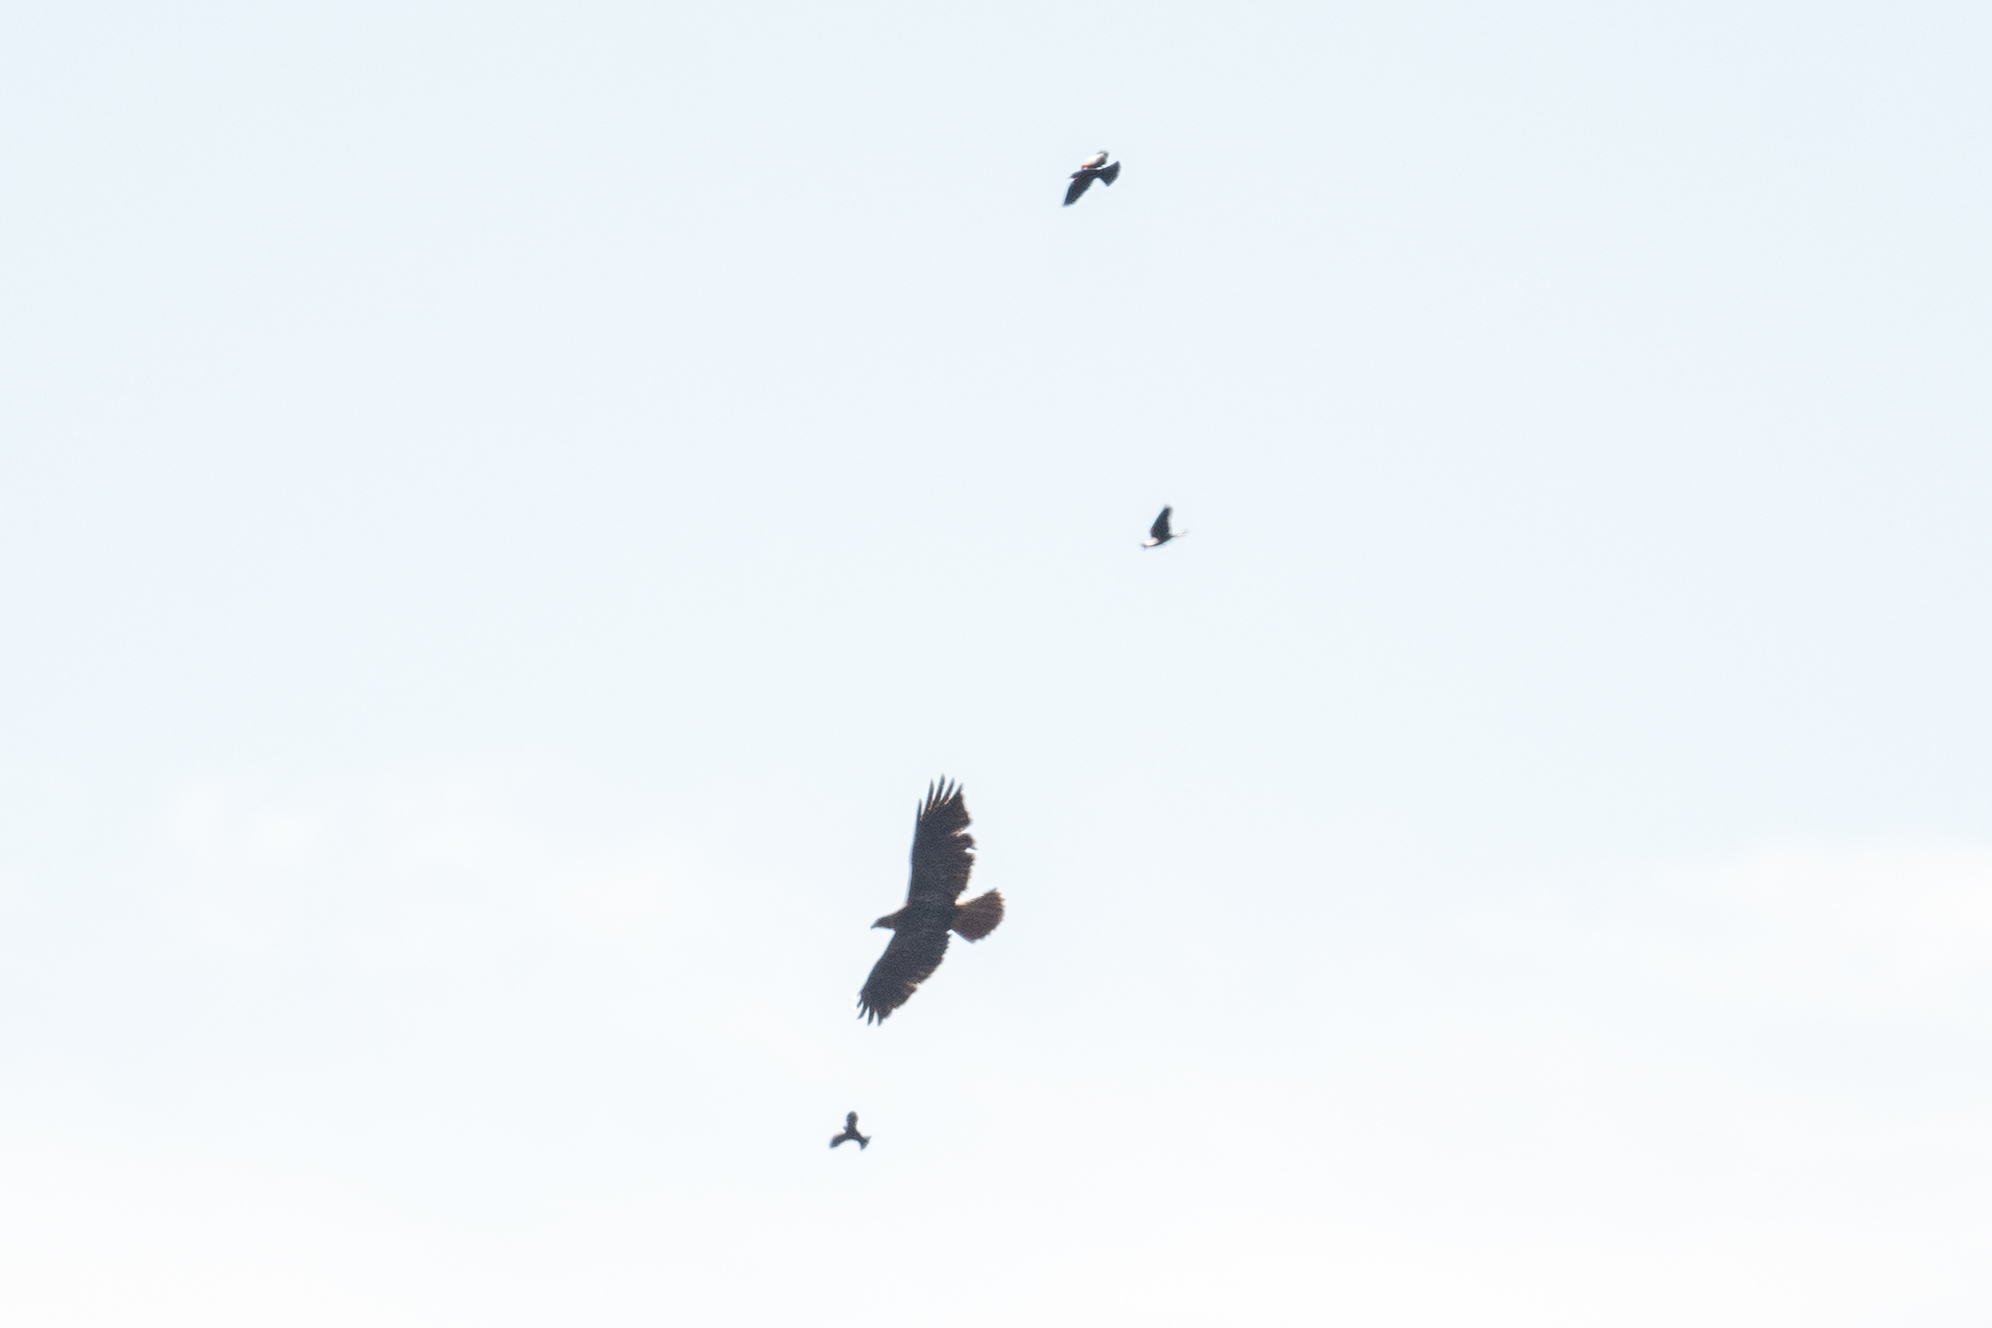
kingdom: Animalia
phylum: Chordata
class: Aves
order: Accipitriformes
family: Accipitridae
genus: Buteo
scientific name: Buteo jamaicensis
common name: Red-tailed hawk
